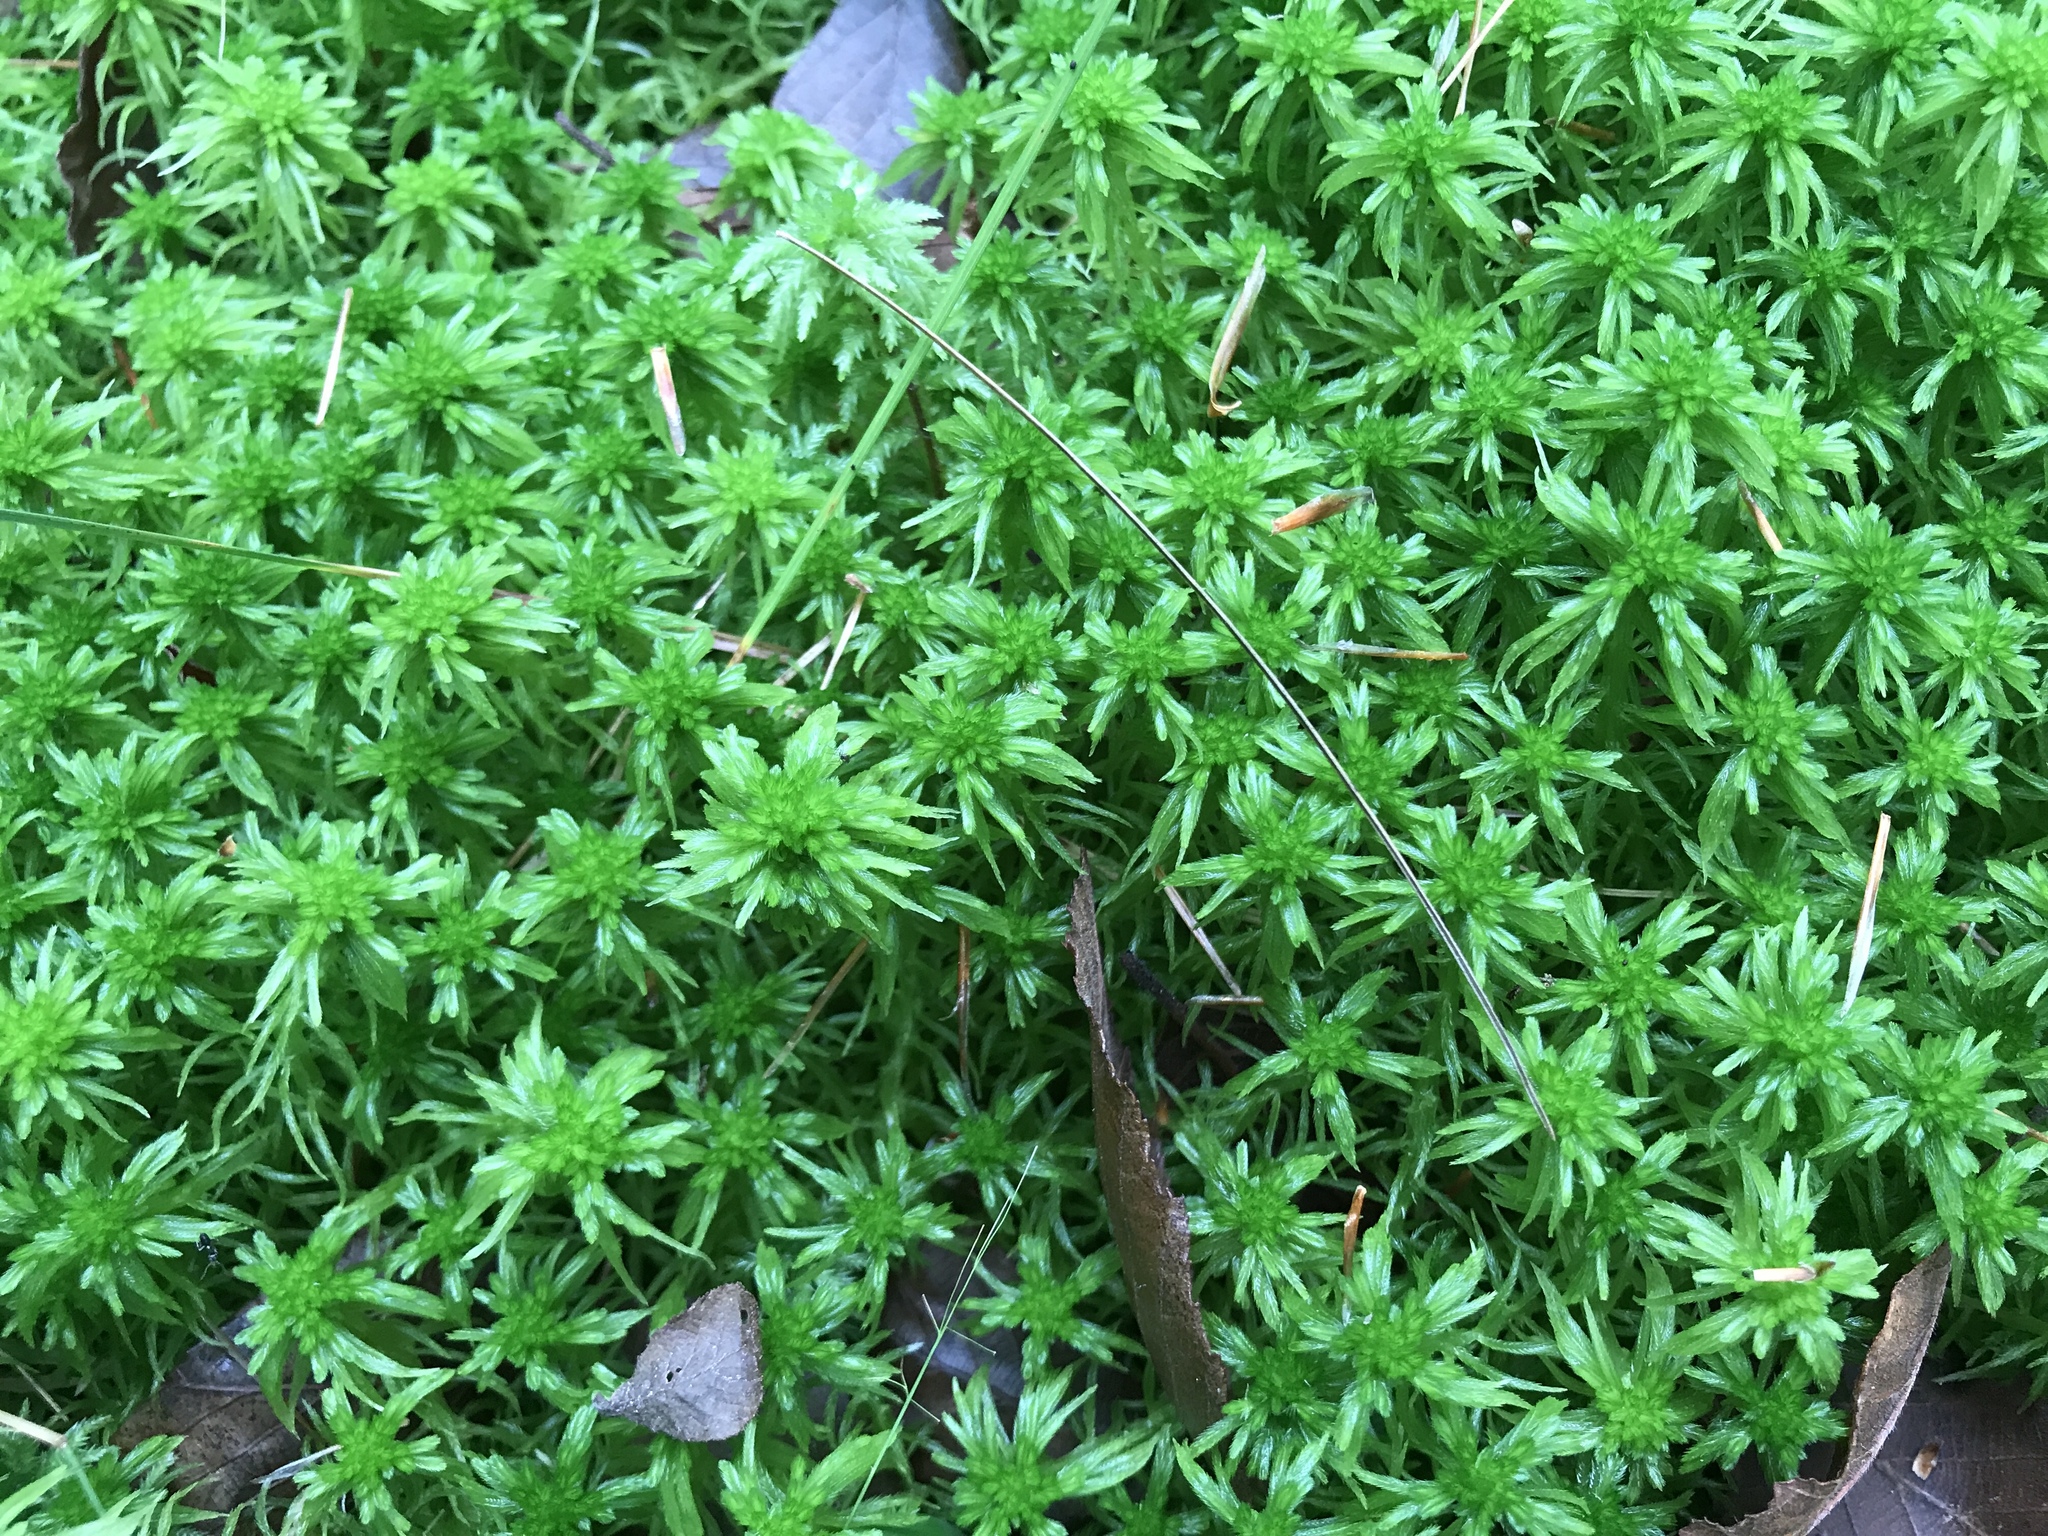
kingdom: Plantae
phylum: Bryophyta
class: Sphagnopsida
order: Sphagnales
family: Sphagnaceae
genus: Sphagnum
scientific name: Sphagnum recurvum
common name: Recurved peatmoss
